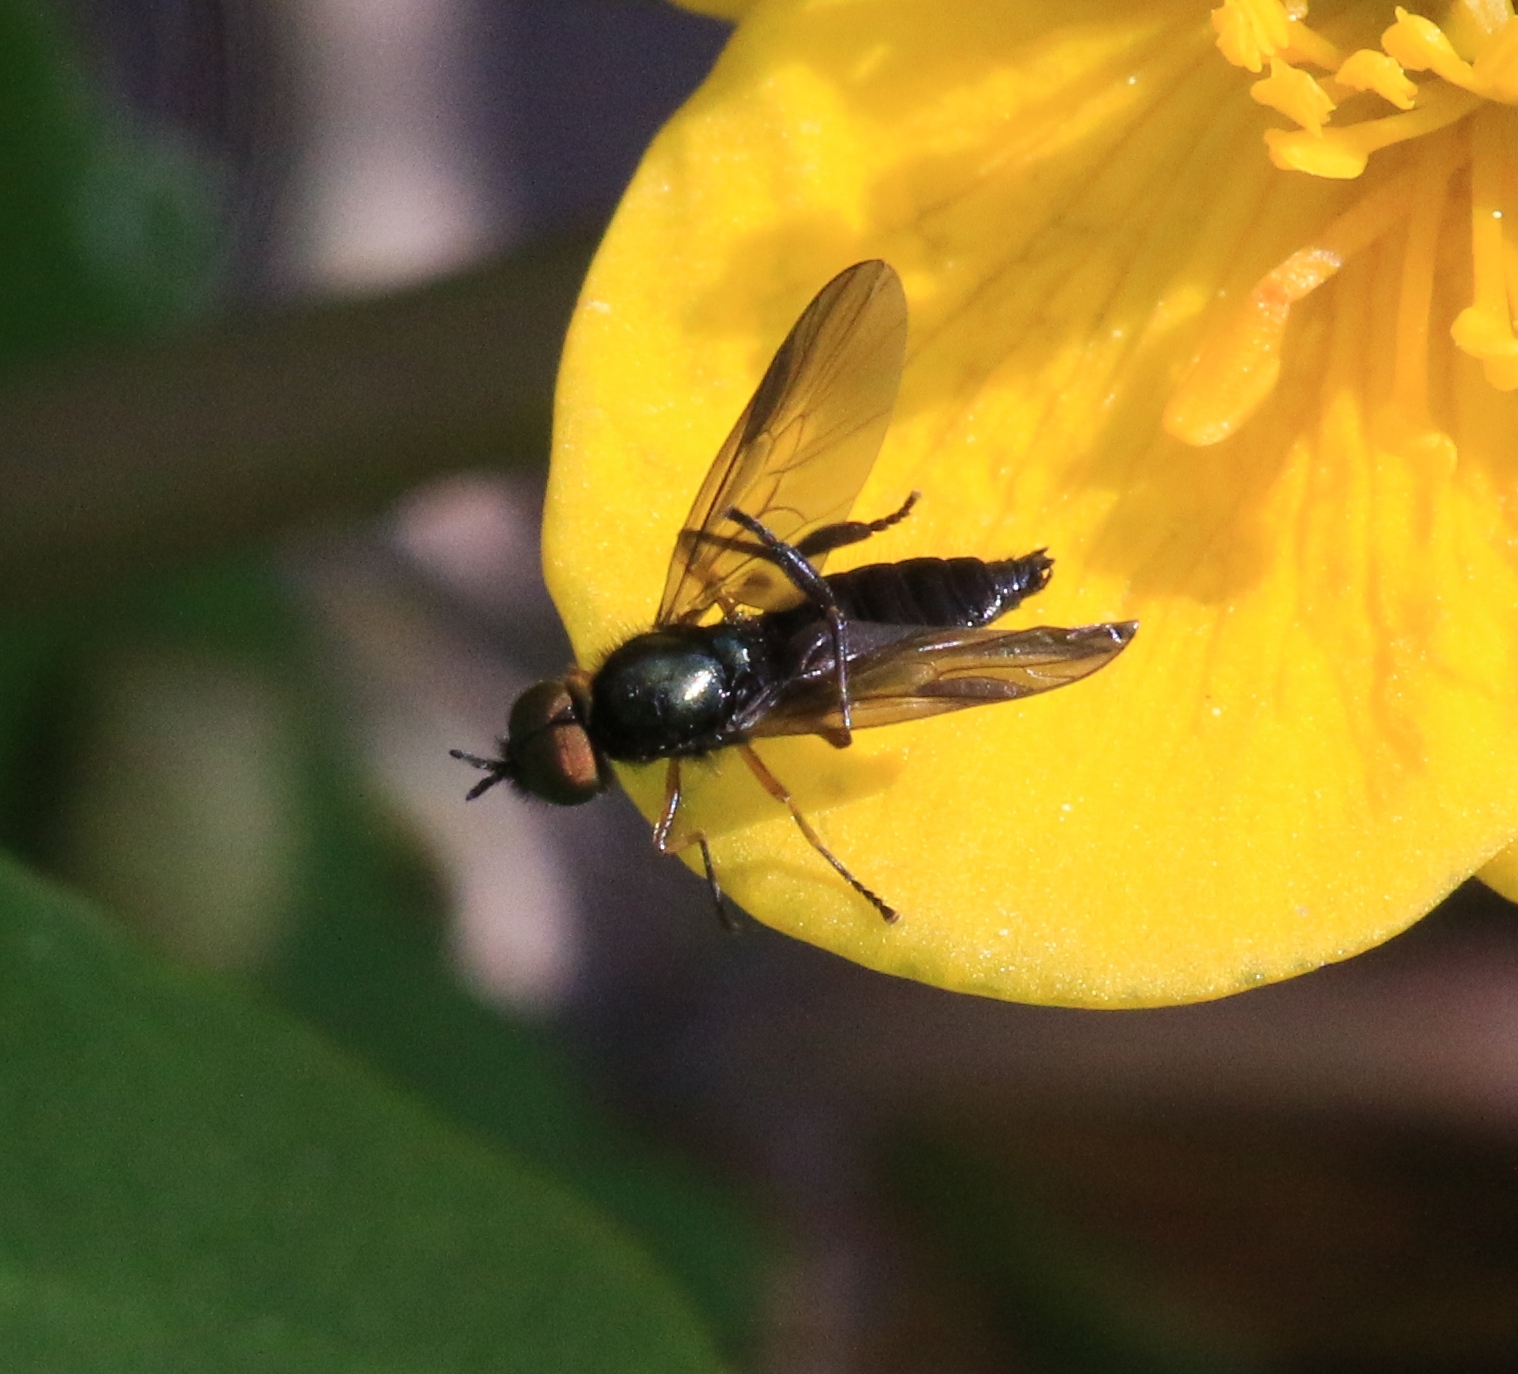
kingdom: Animalia
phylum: Arthropoda
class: Insecta
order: Diptera
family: Stratiomyidae
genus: Beris
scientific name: Beris chalybata
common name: Murky-legged black legionnaire
